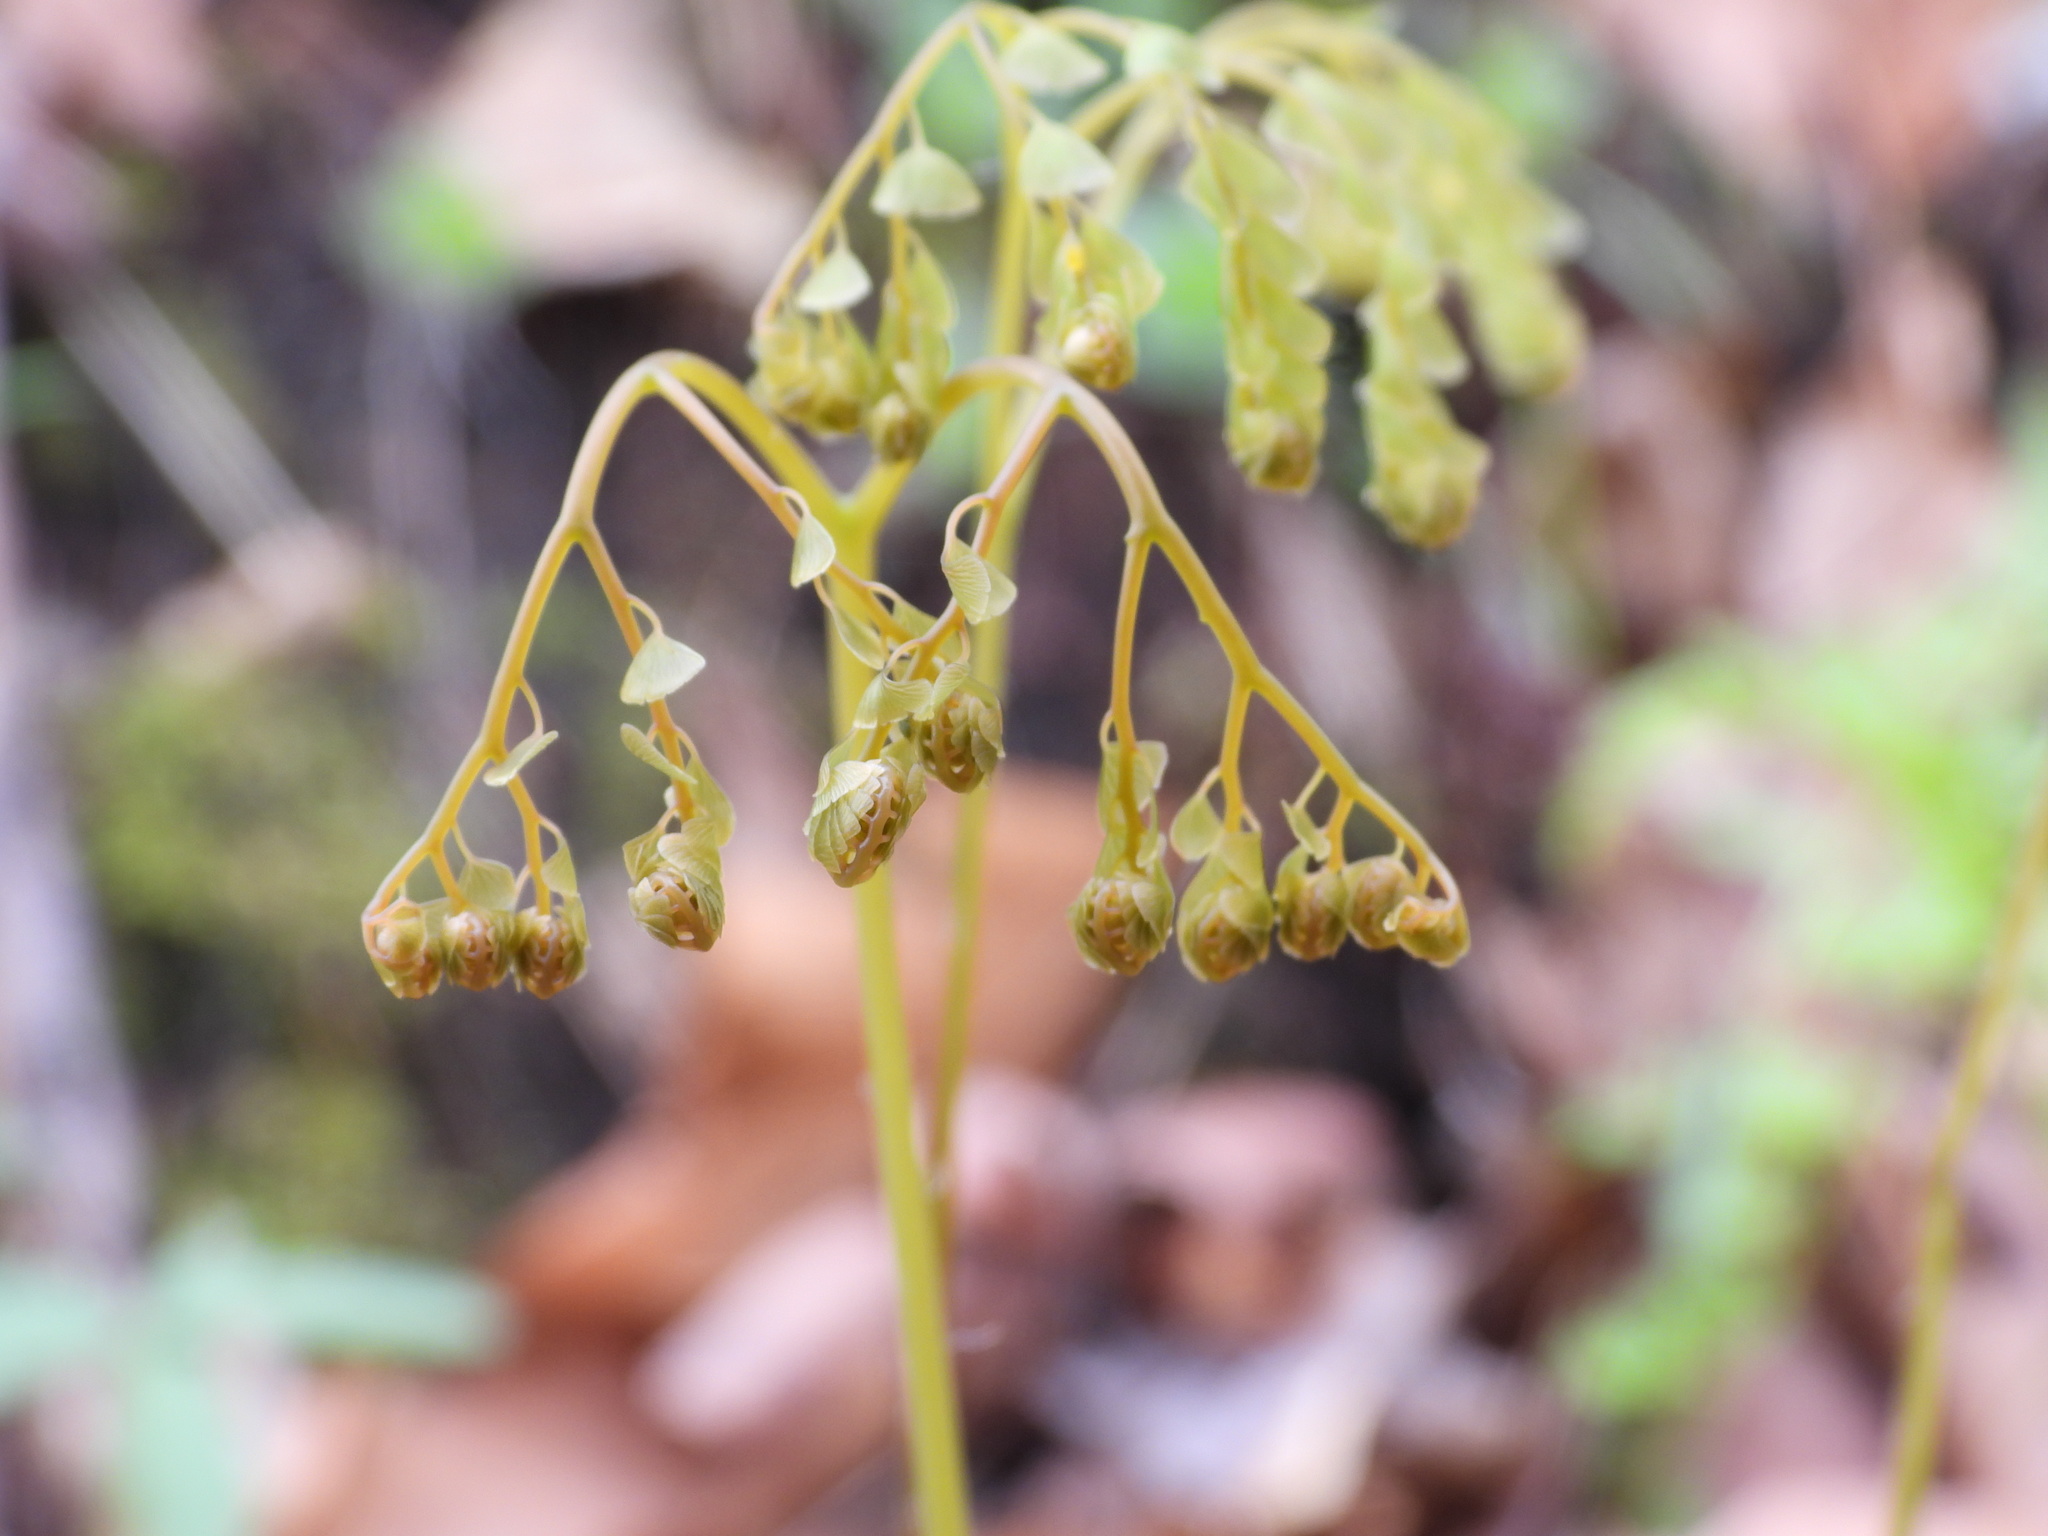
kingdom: Plantae
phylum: Tracheophyta
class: Polypodiopsida
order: Polypodiales
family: Pteridaceae
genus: Adiantum
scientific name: Adiantum pedatum
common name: Five-finger fern
